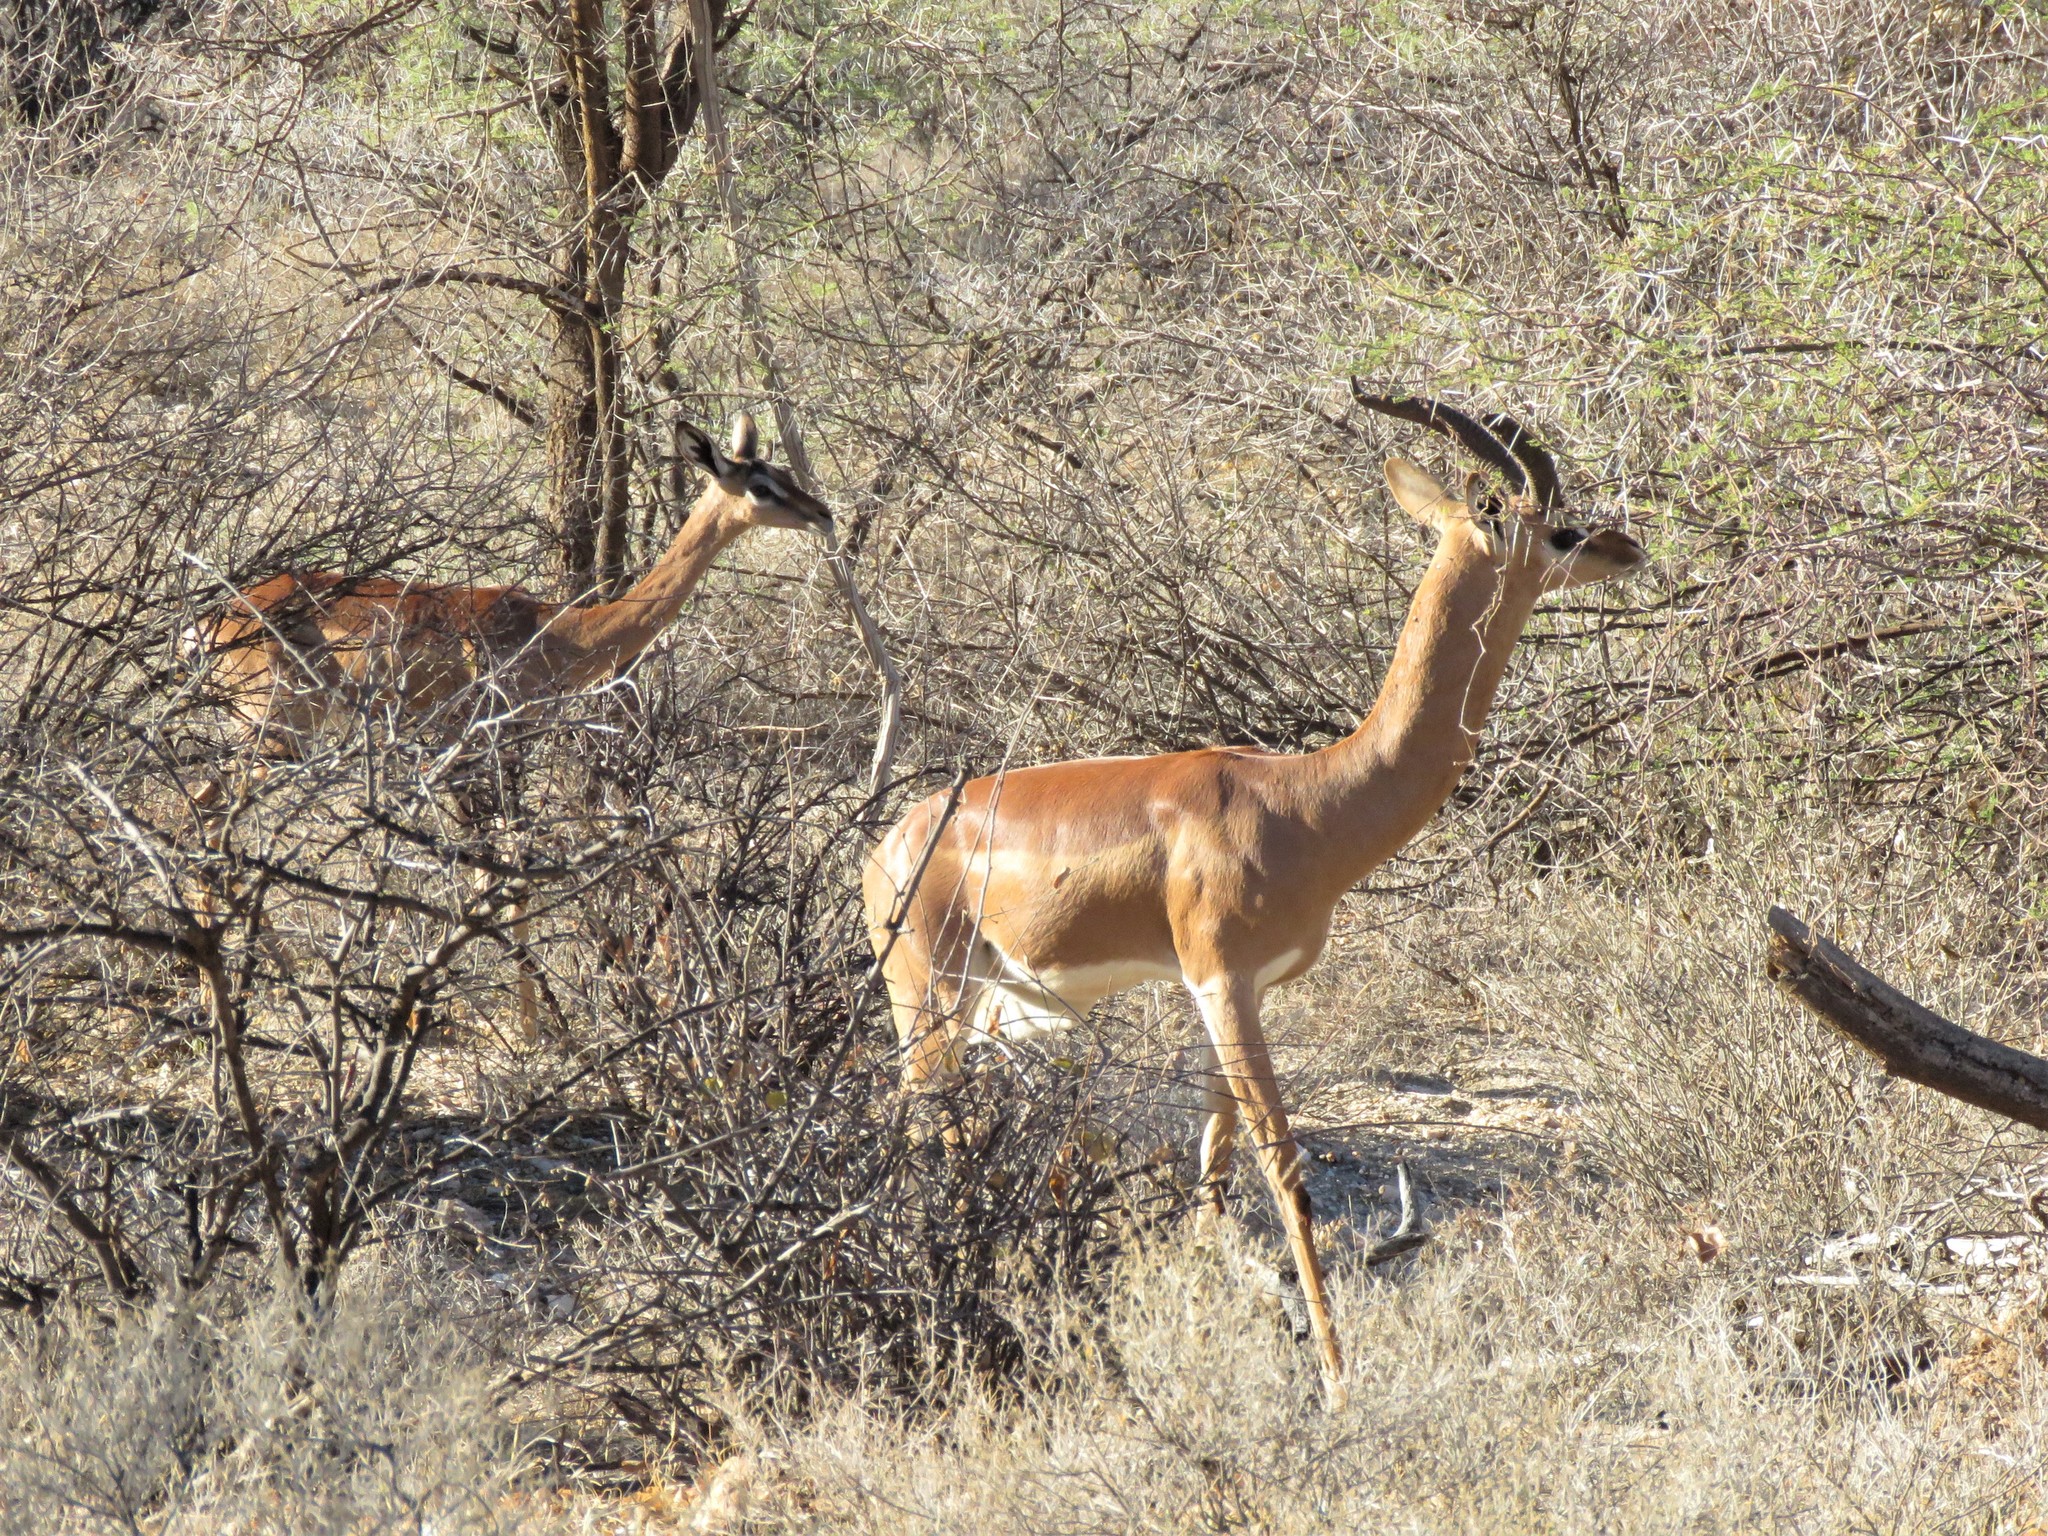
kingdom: Animalia
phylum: Chordata
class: Mammalia
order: Artiodactyla
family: Bovidae
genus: Litocranius
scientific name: Litocranius walleri
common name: Gerenuk
